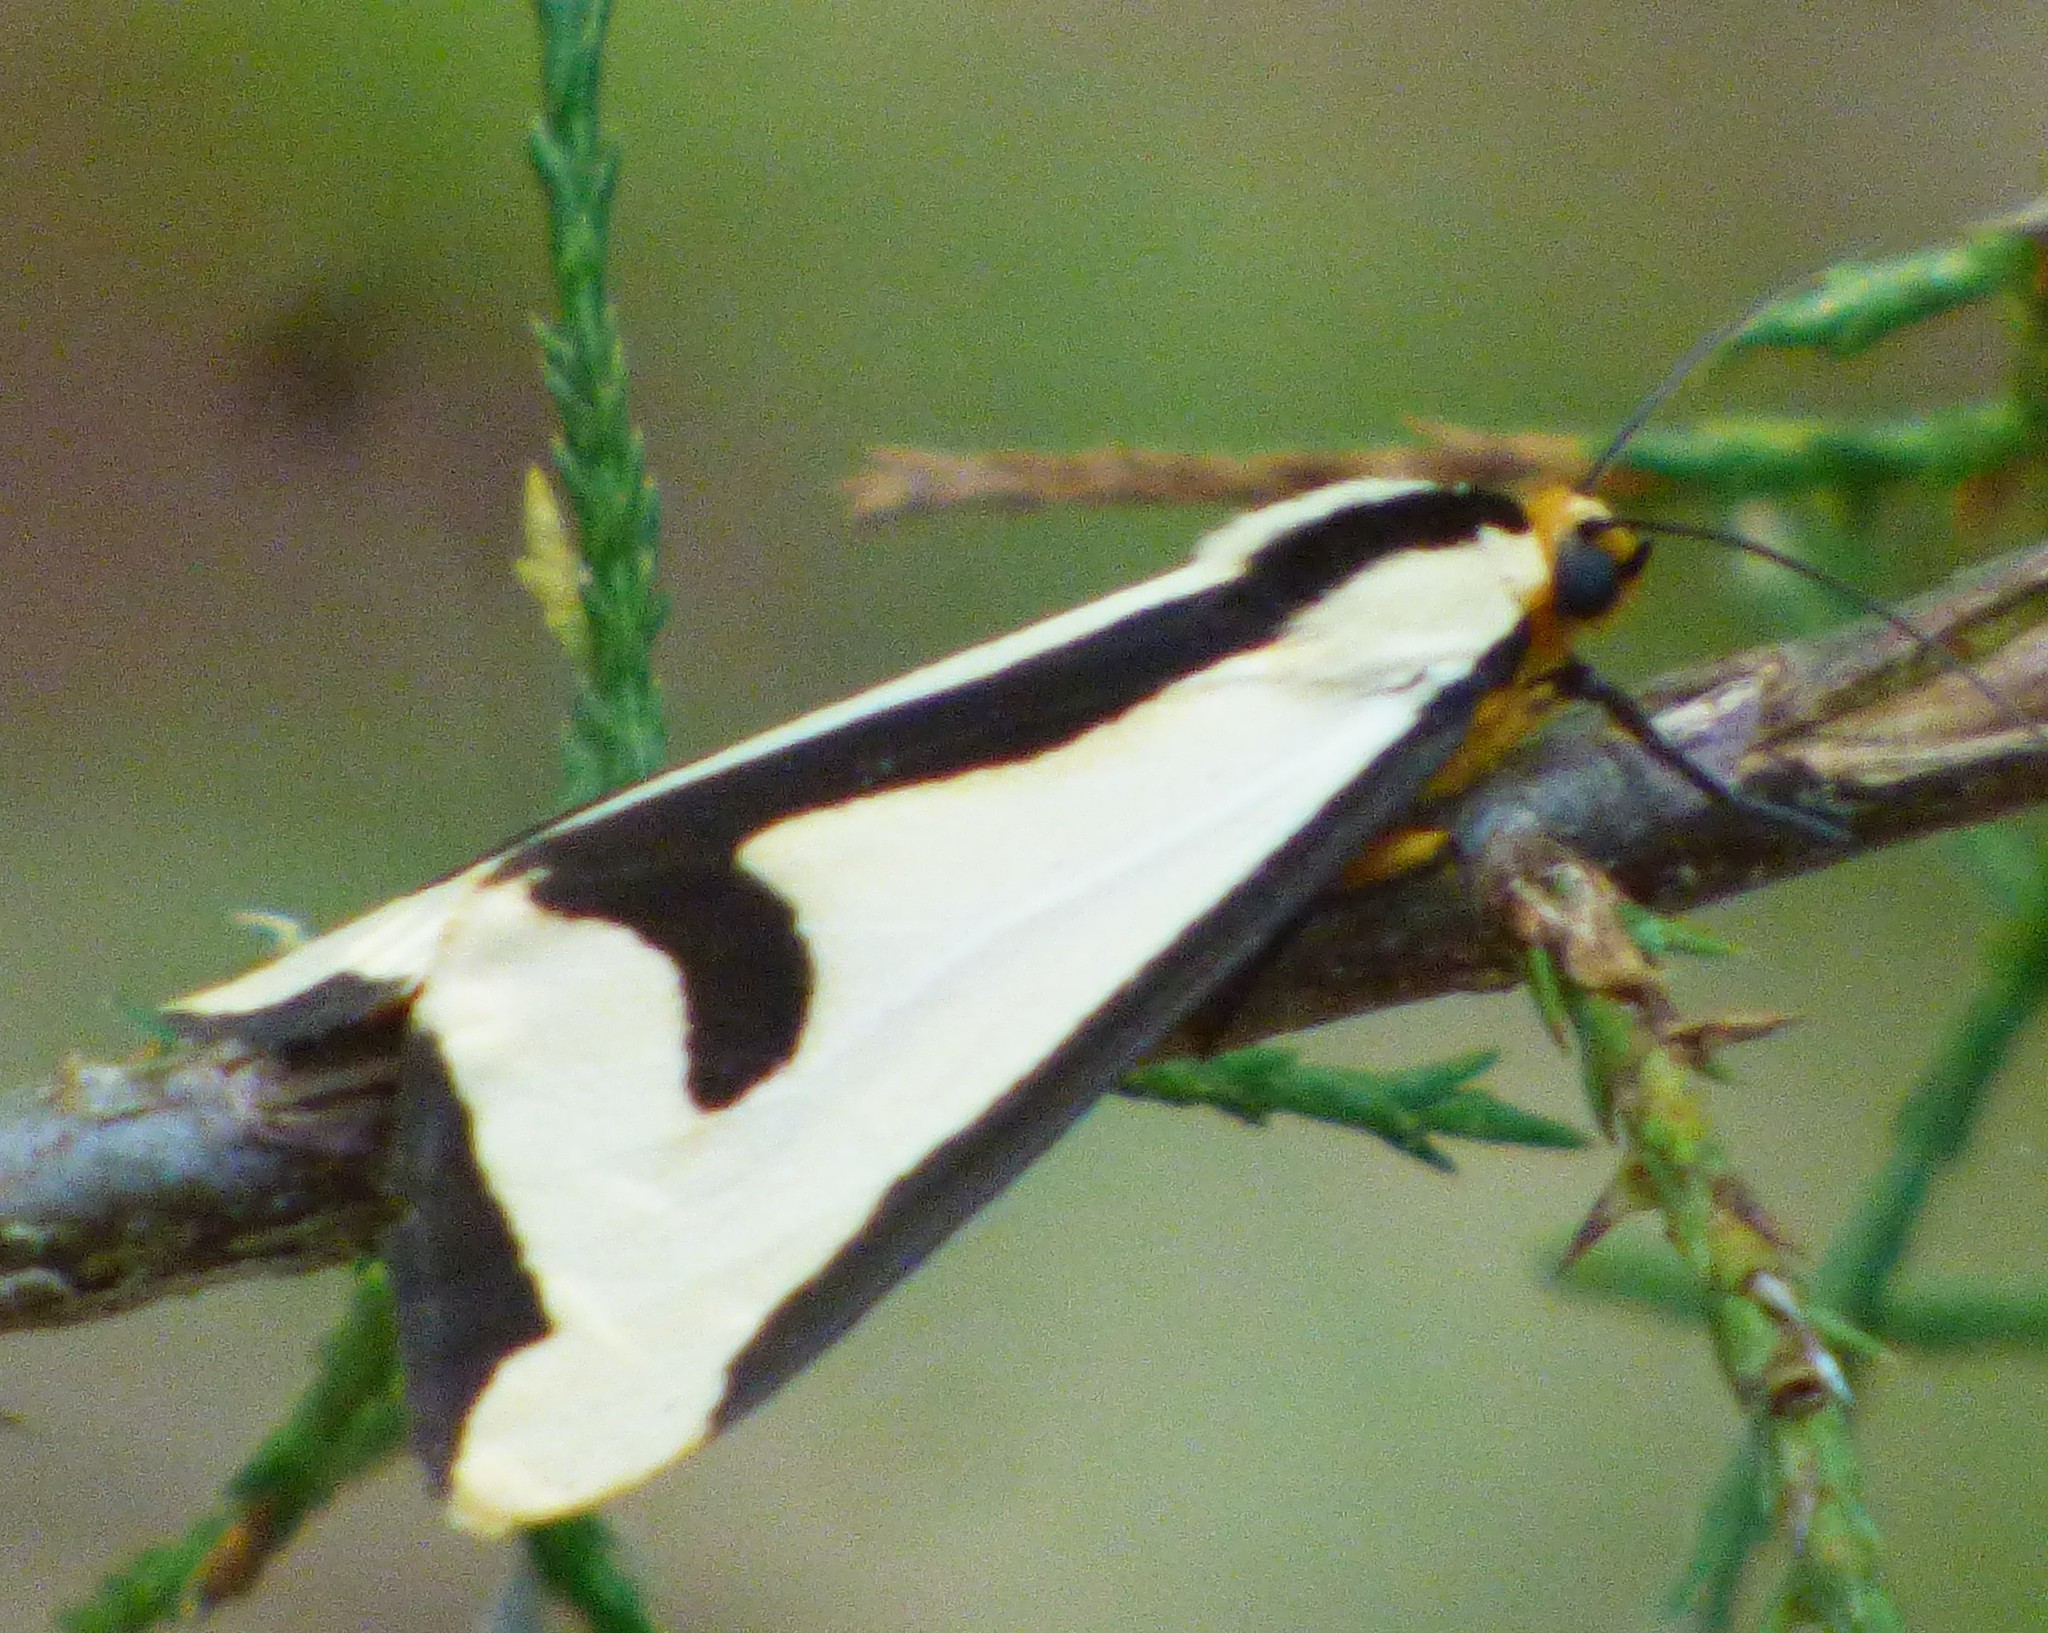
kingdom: Animalia
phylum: Arthropoda
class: Insecta
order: Lepidoptera
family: Erebidae
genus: Haploa
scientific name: Haploa clymene
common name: Clymene moth
